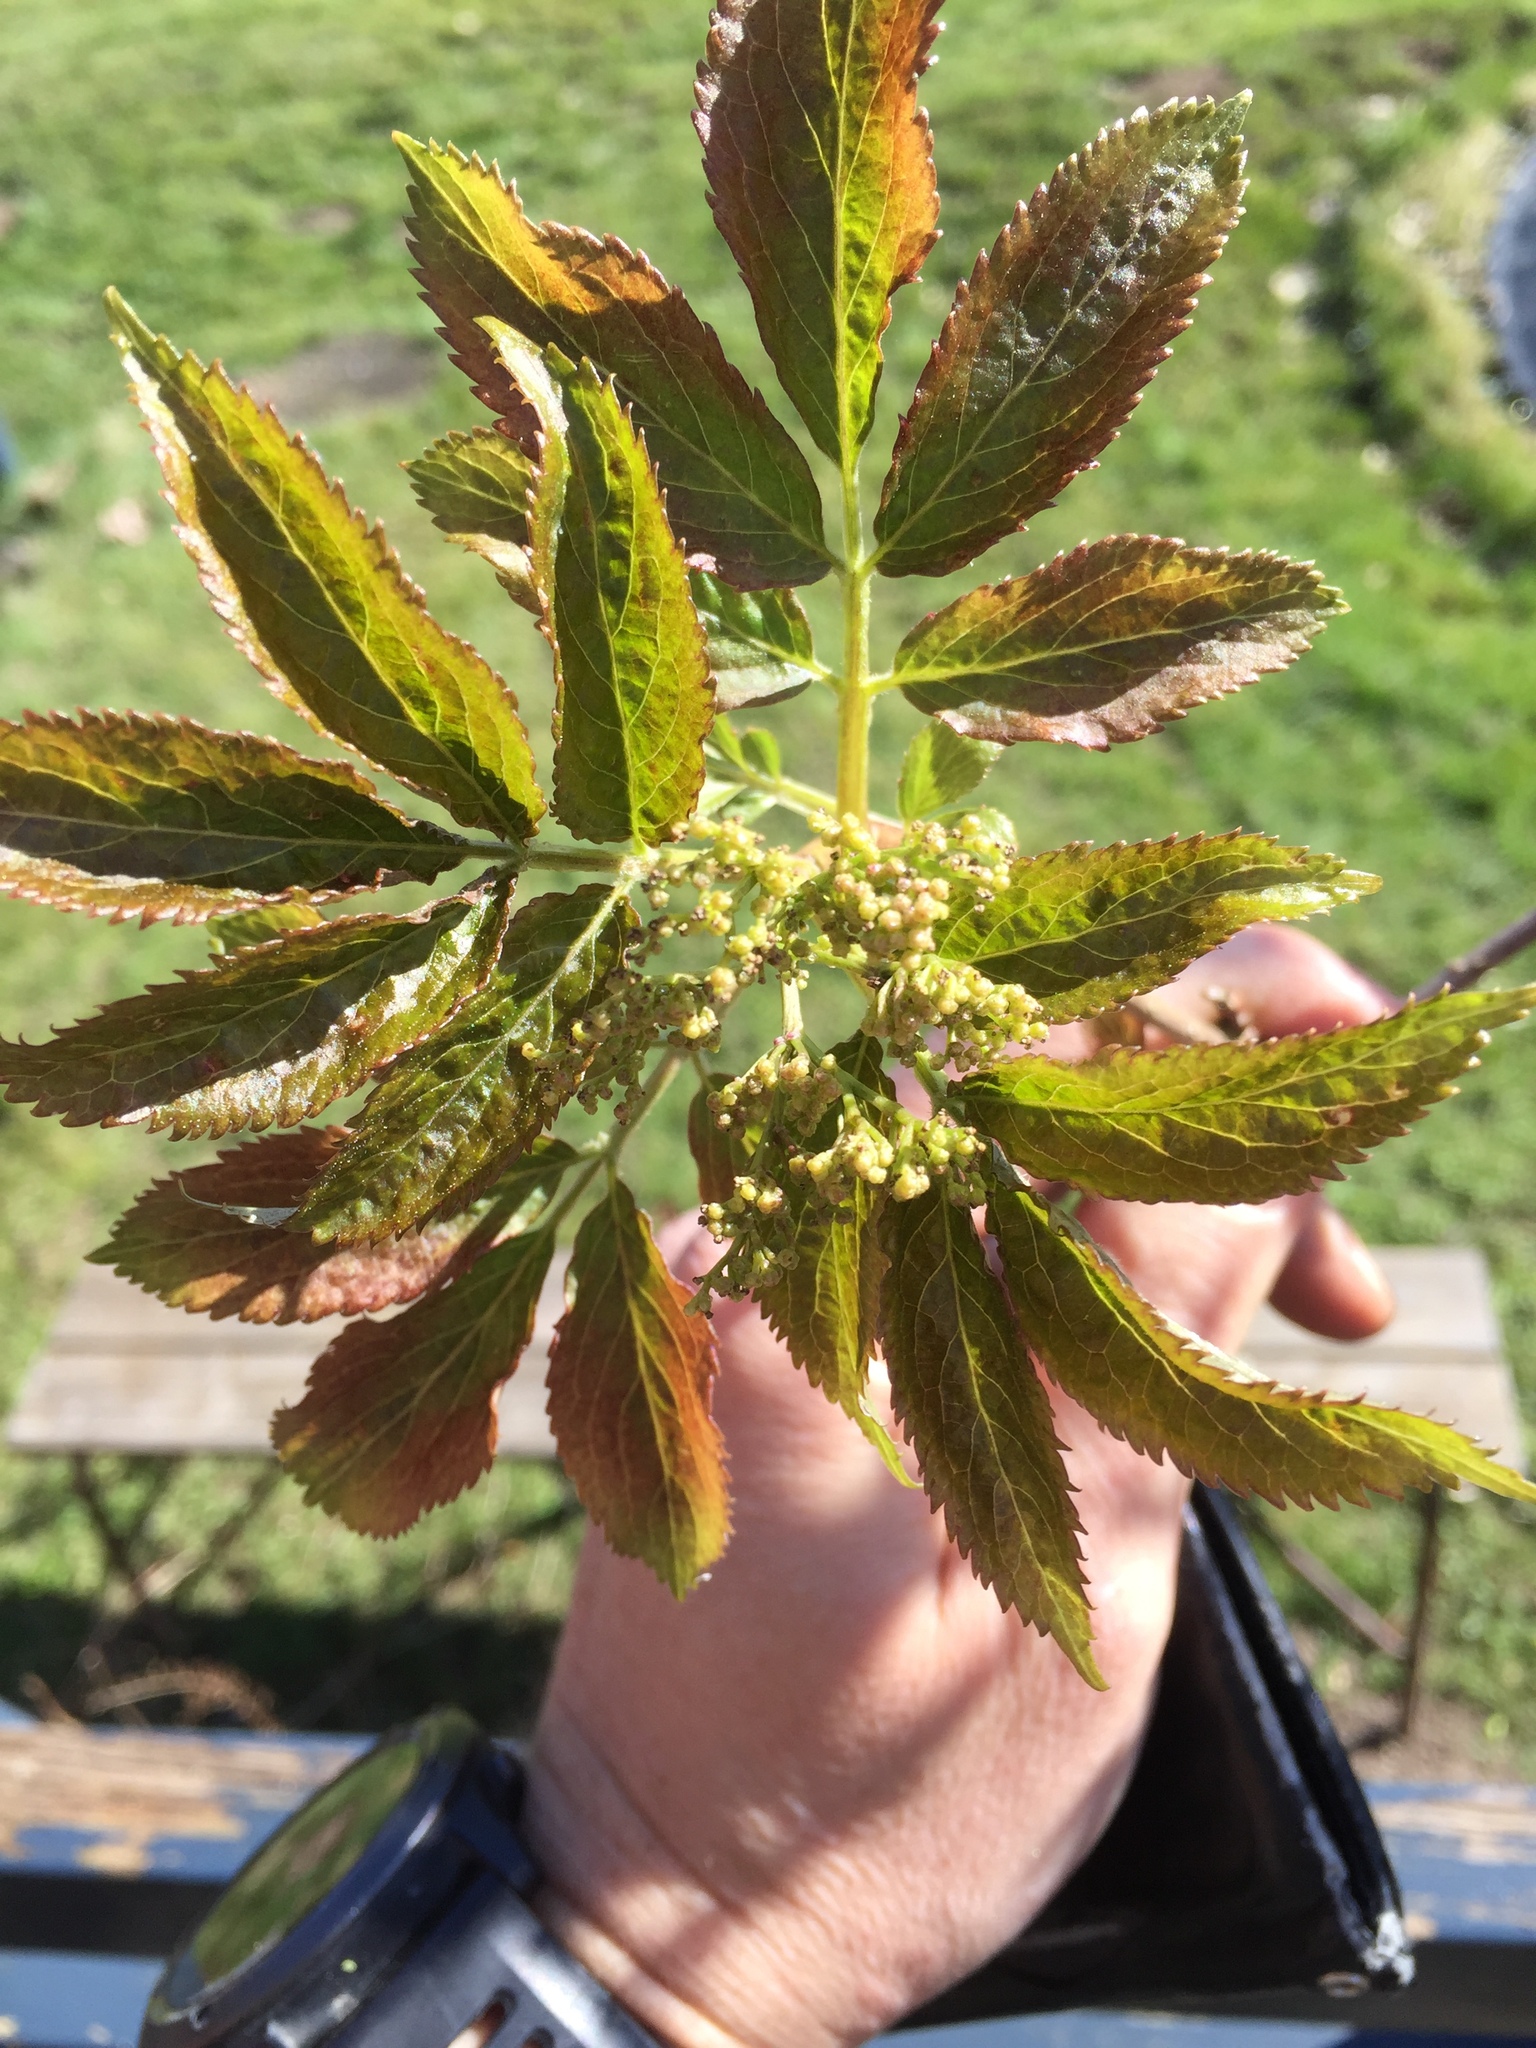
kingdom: Plantae
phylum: Tracheophyta
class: Magnoliopsida
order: Dipsacales
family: Viburnaceae
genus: Sambucus
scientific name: Sambucus nigra
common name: Elder
